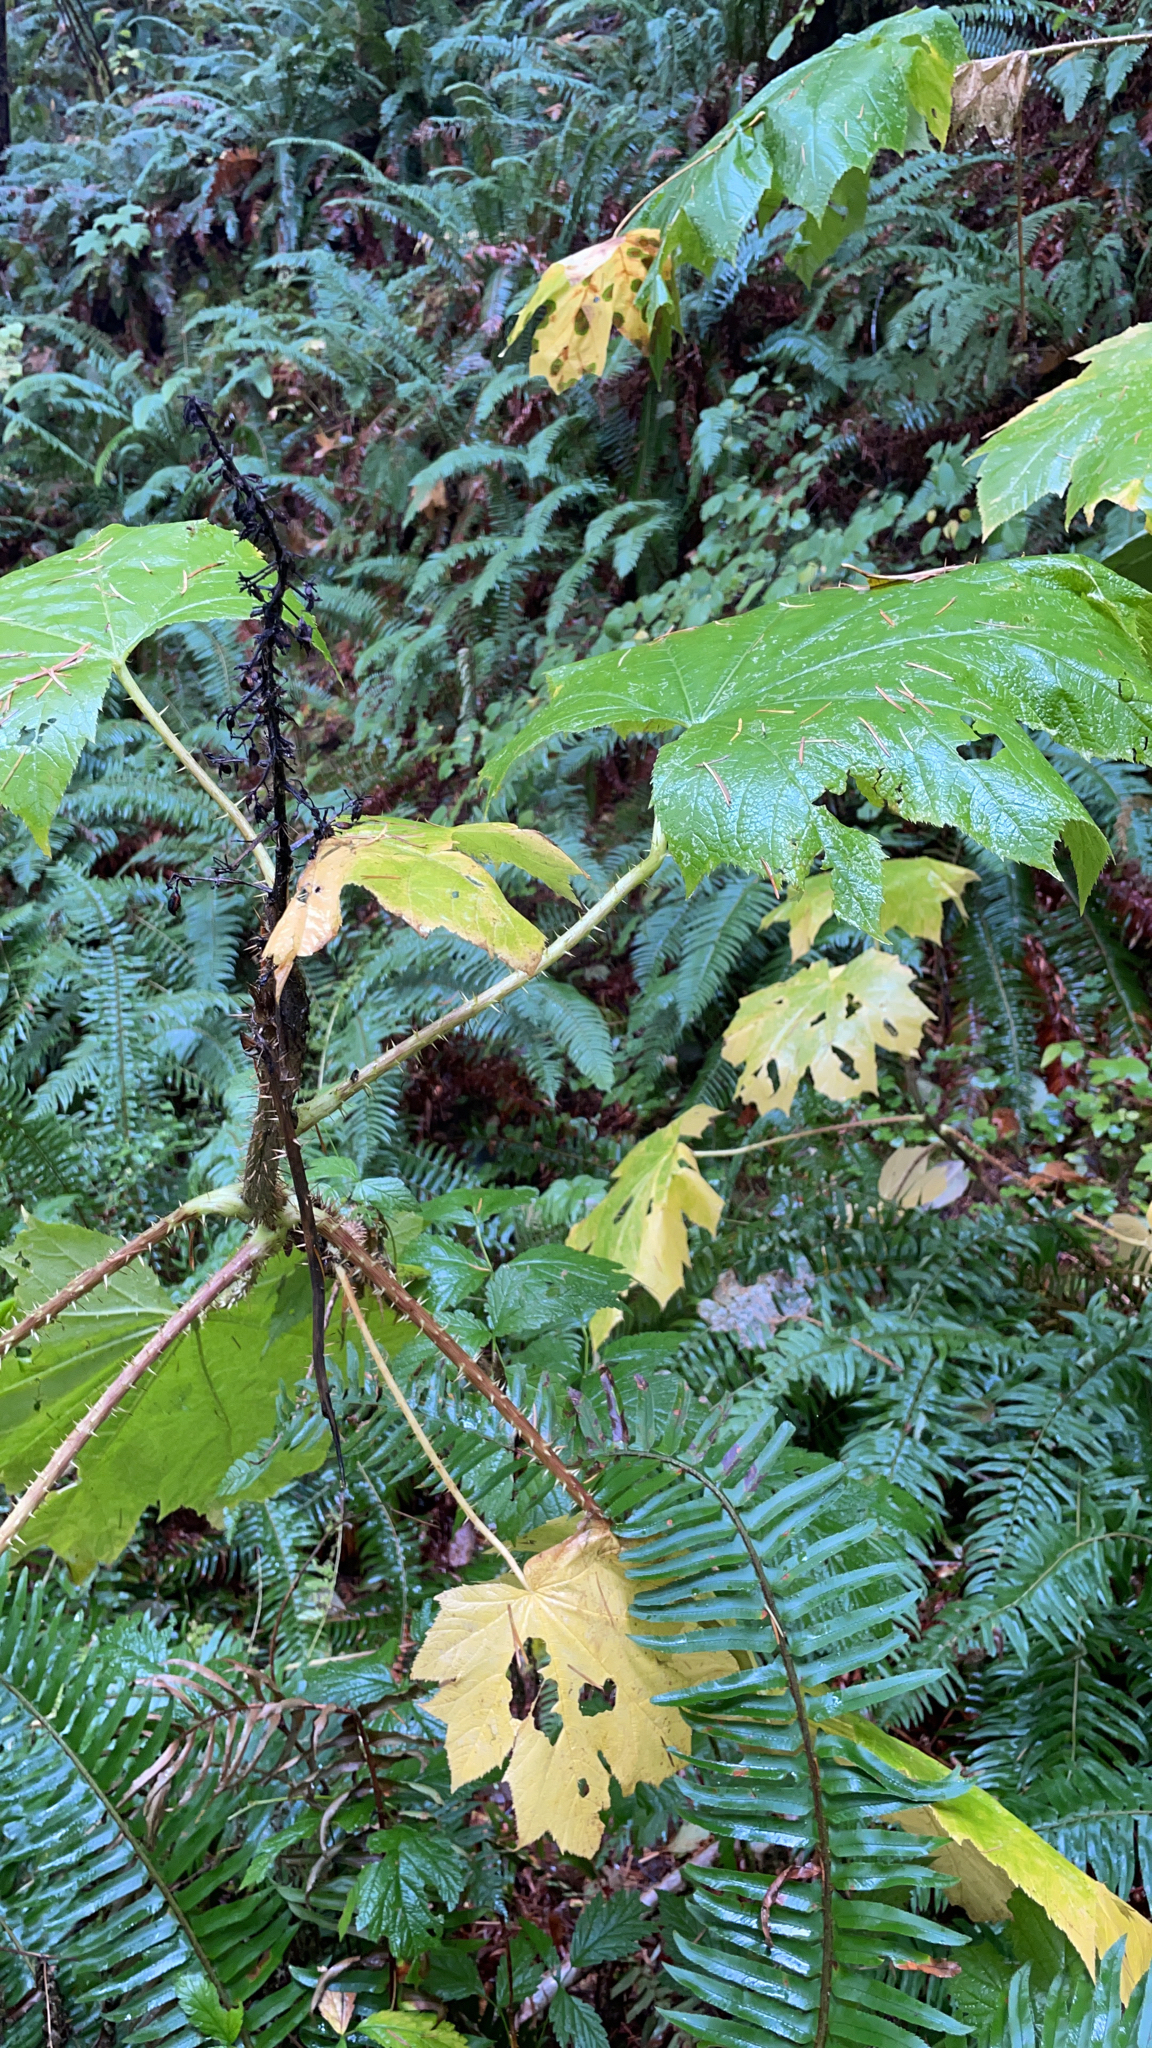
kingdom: Plantae
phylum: Tracheophyta
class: Magnoliopsida
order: Apiales
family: Araliaceae
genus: Oplopanax
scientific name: Oplopanax horridus
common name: Devil's walking-stick
